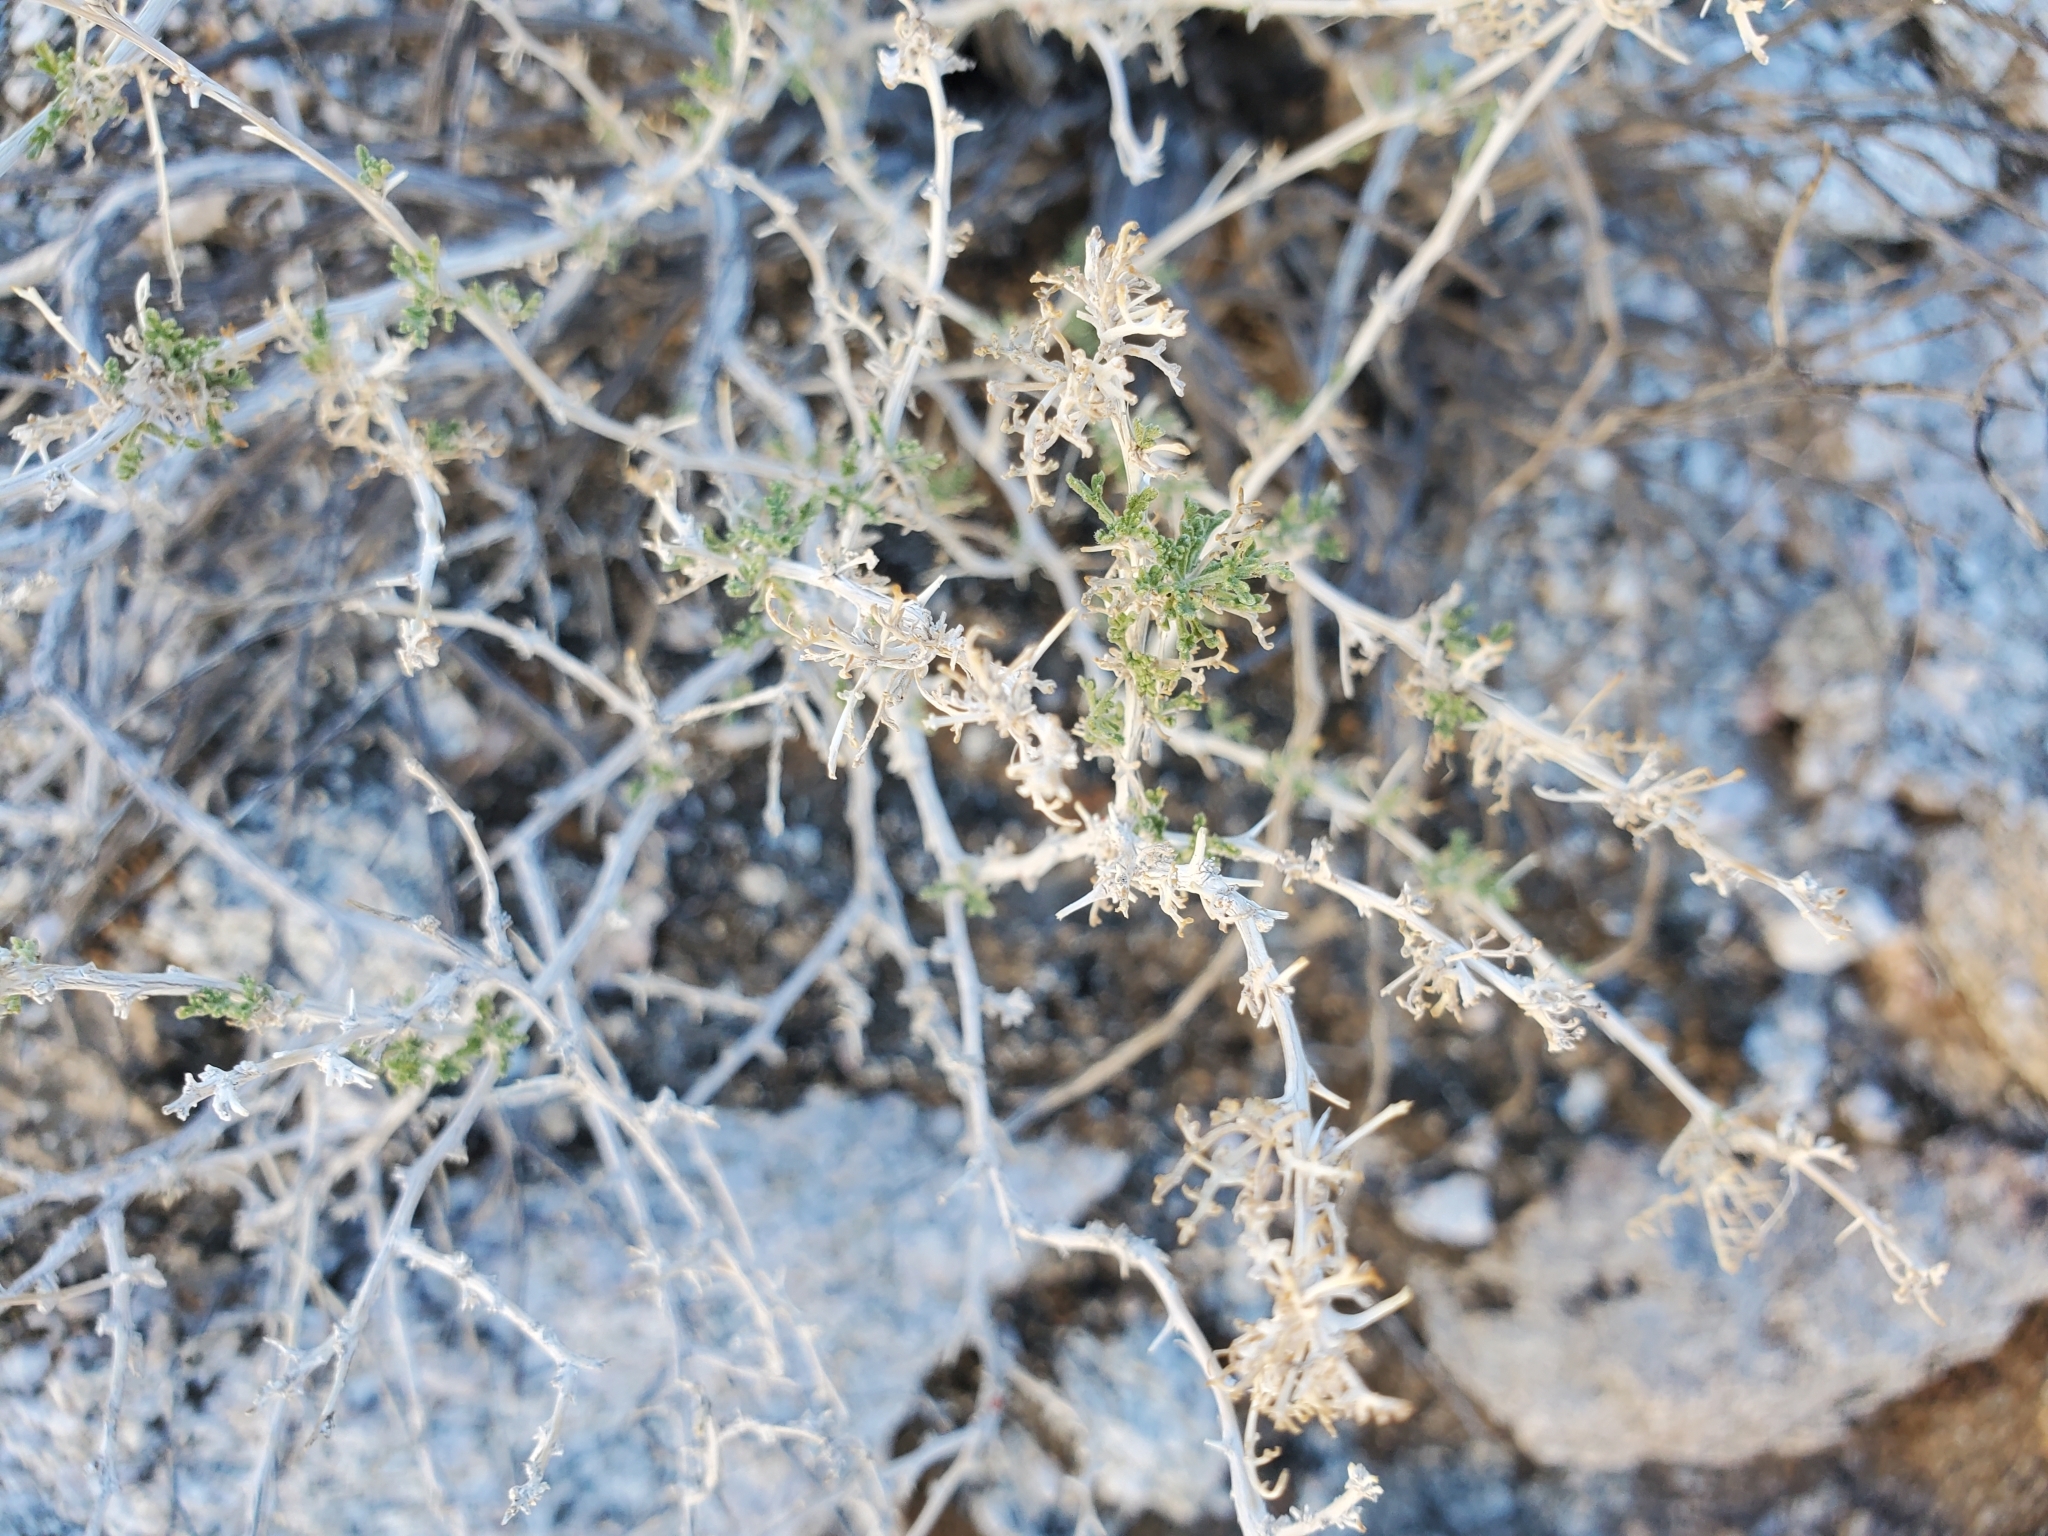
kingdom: Plantae
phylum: Tracheophyta
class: Magnoliopsida
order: Asterales
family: Asteraceae
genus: Ambrosia
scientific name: Ambrosia dumosa
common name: Bur-sage
